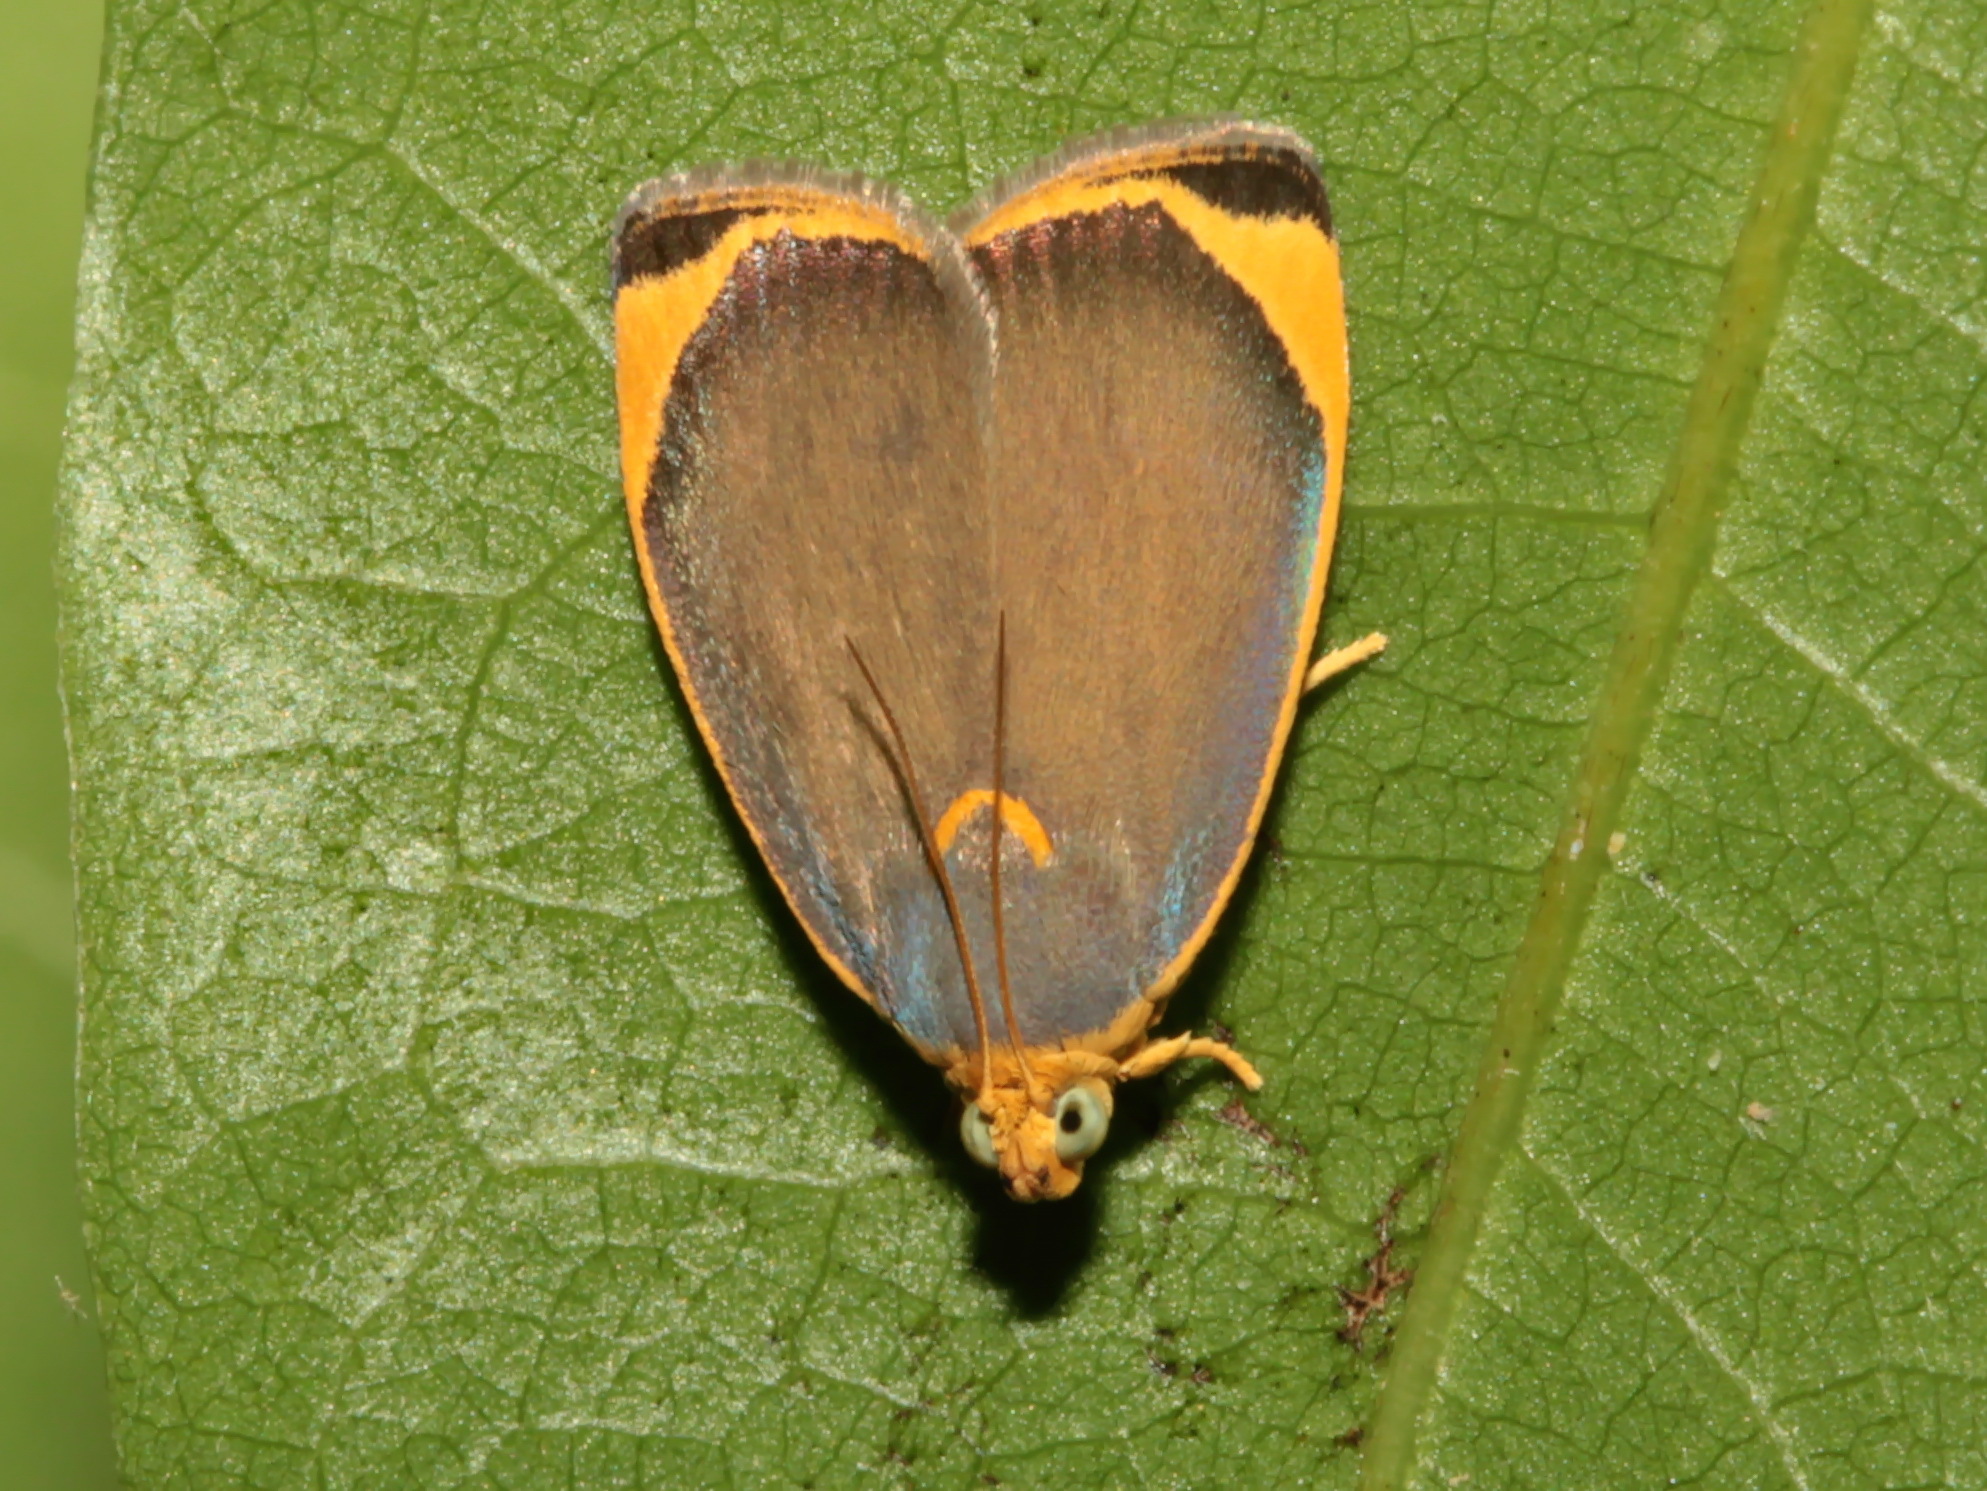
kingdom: Animalia
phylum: Arthropoda
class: Insecta
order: Lepidoptera
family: Immidae
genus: Imma
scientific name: Imma flaviceps
